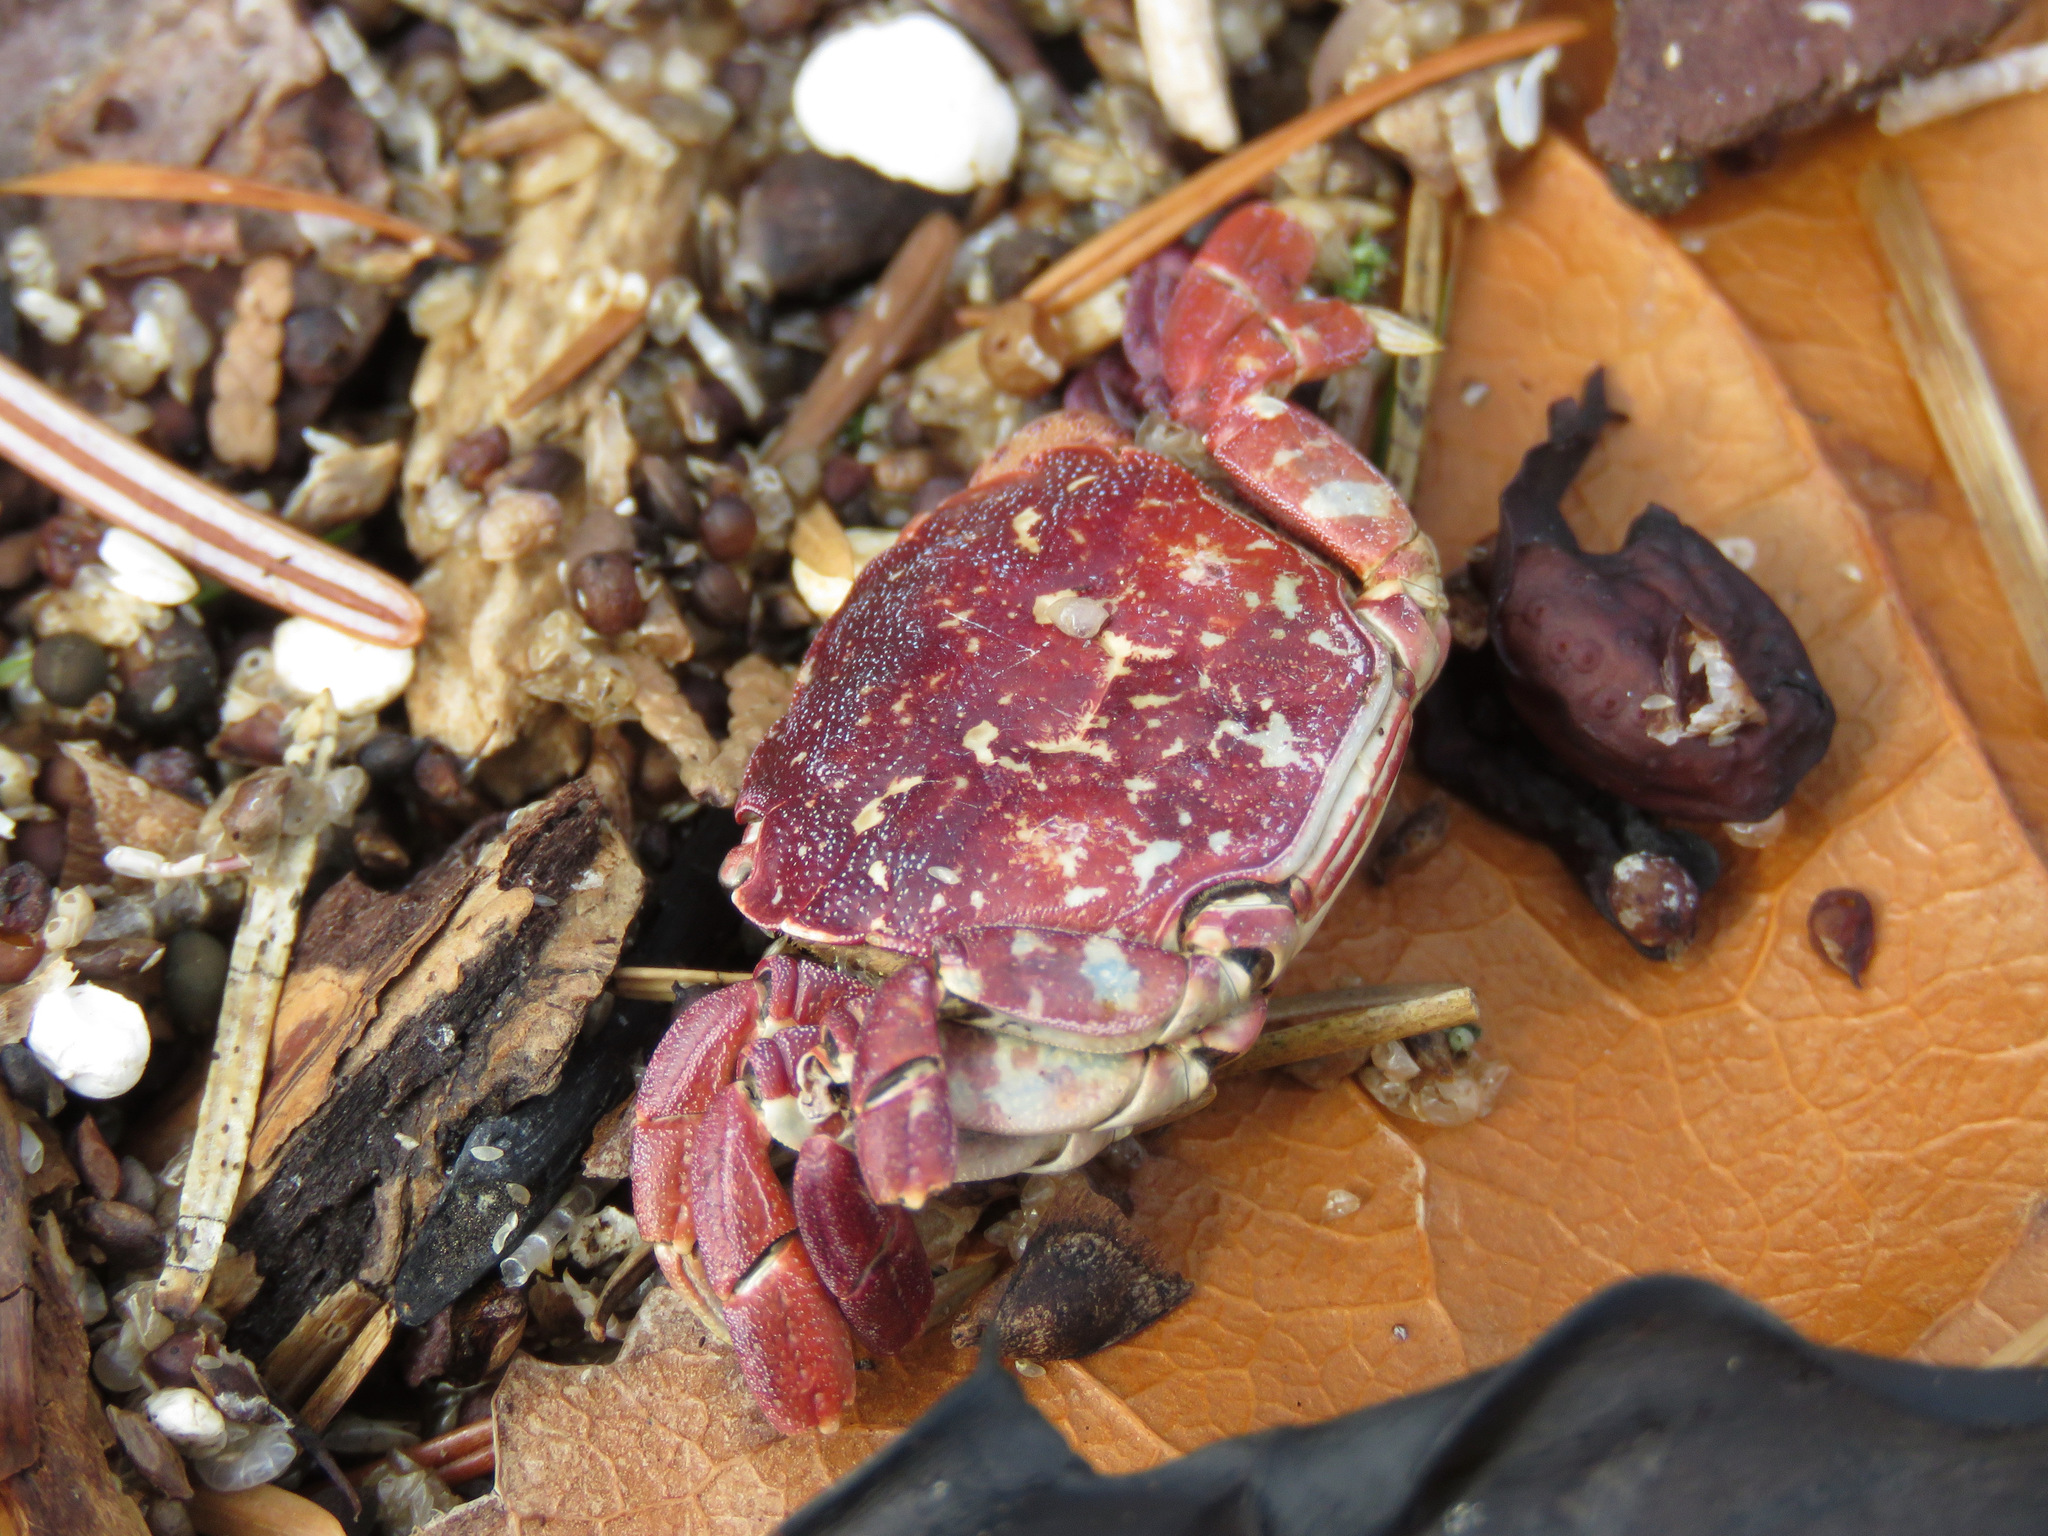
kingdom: Animalia
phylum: Arthropoda
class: Malacostraca
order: Decapoda
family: Varunidae
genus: Hemigrapsus
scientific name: Hemigrapsus nudus
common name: Purple shore crab
